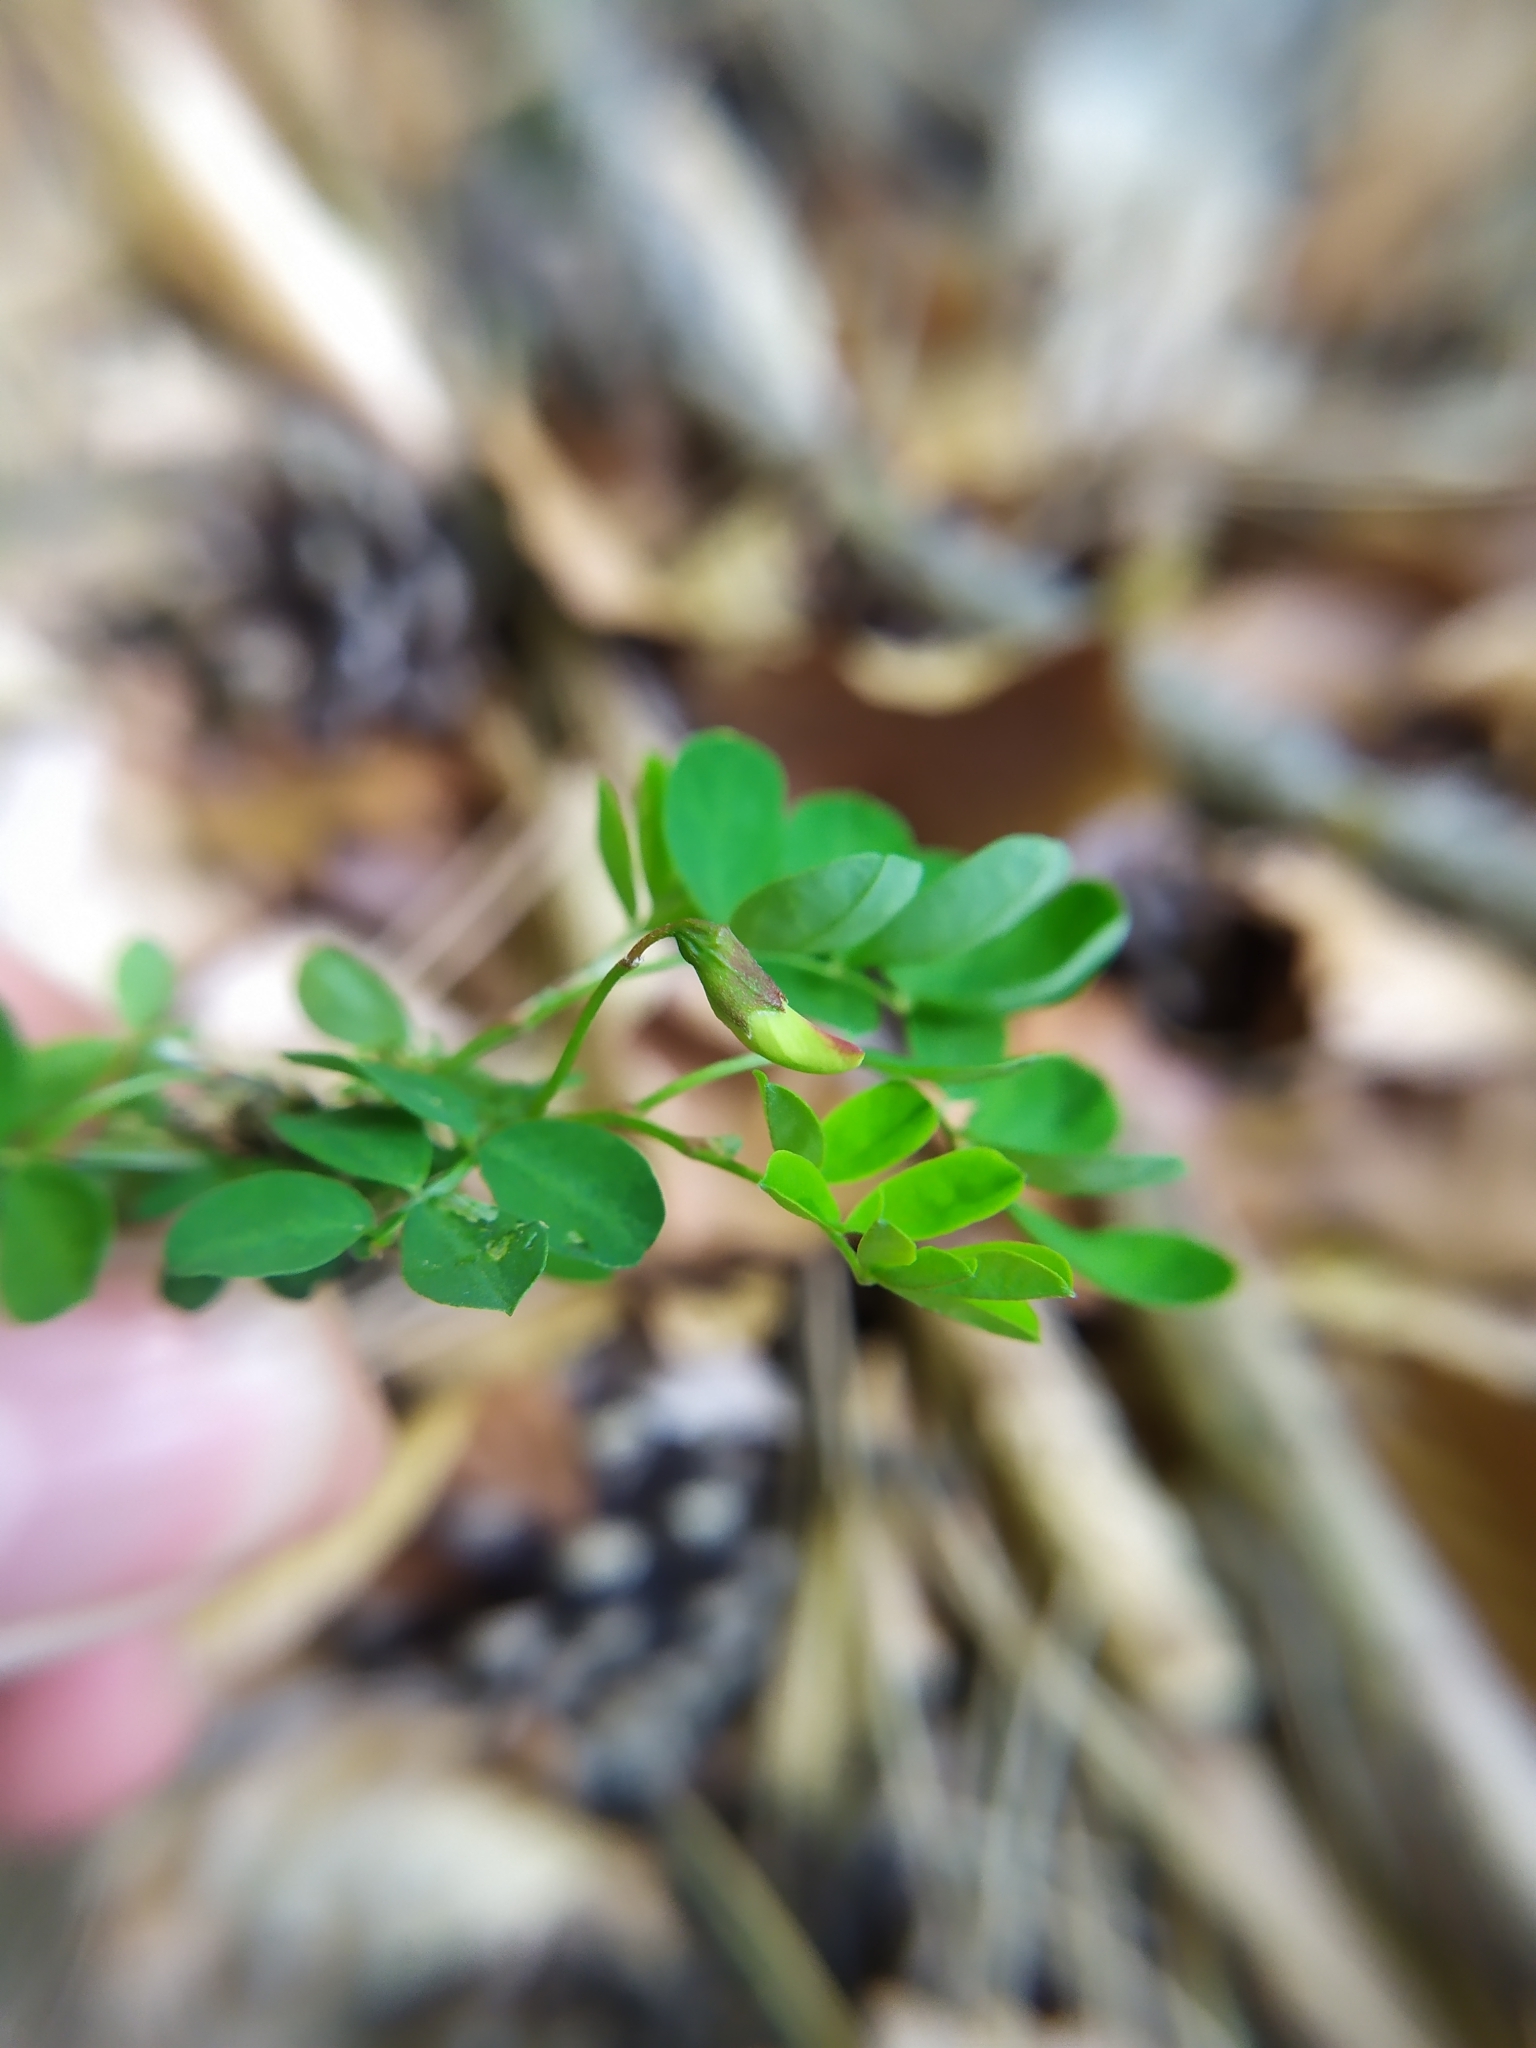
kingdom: Plantae
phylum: Tracheophyta
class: Magnoliopsida
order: Fabales
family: Fabaceae
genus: Hippocrepis
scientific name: Hippocrepis emerus
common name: Scorpion senna
